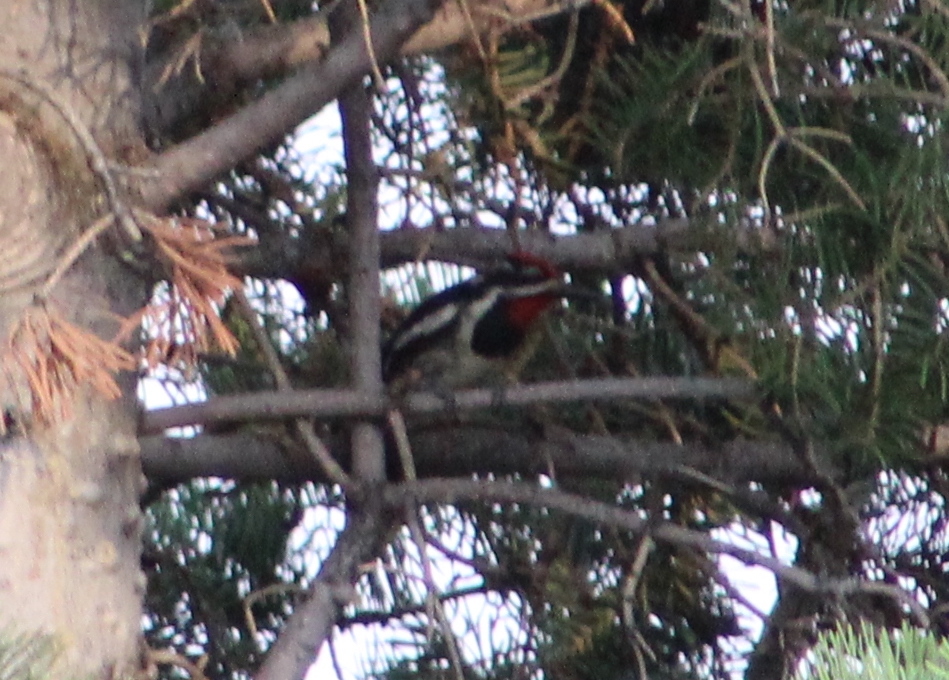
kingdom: Animalia
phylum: Chordata
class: Aves
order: Piciformes
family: Picidae
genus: Sphyrapicus
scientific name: Sphyrapicus nuchalis
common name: Red-naped sapsucker
